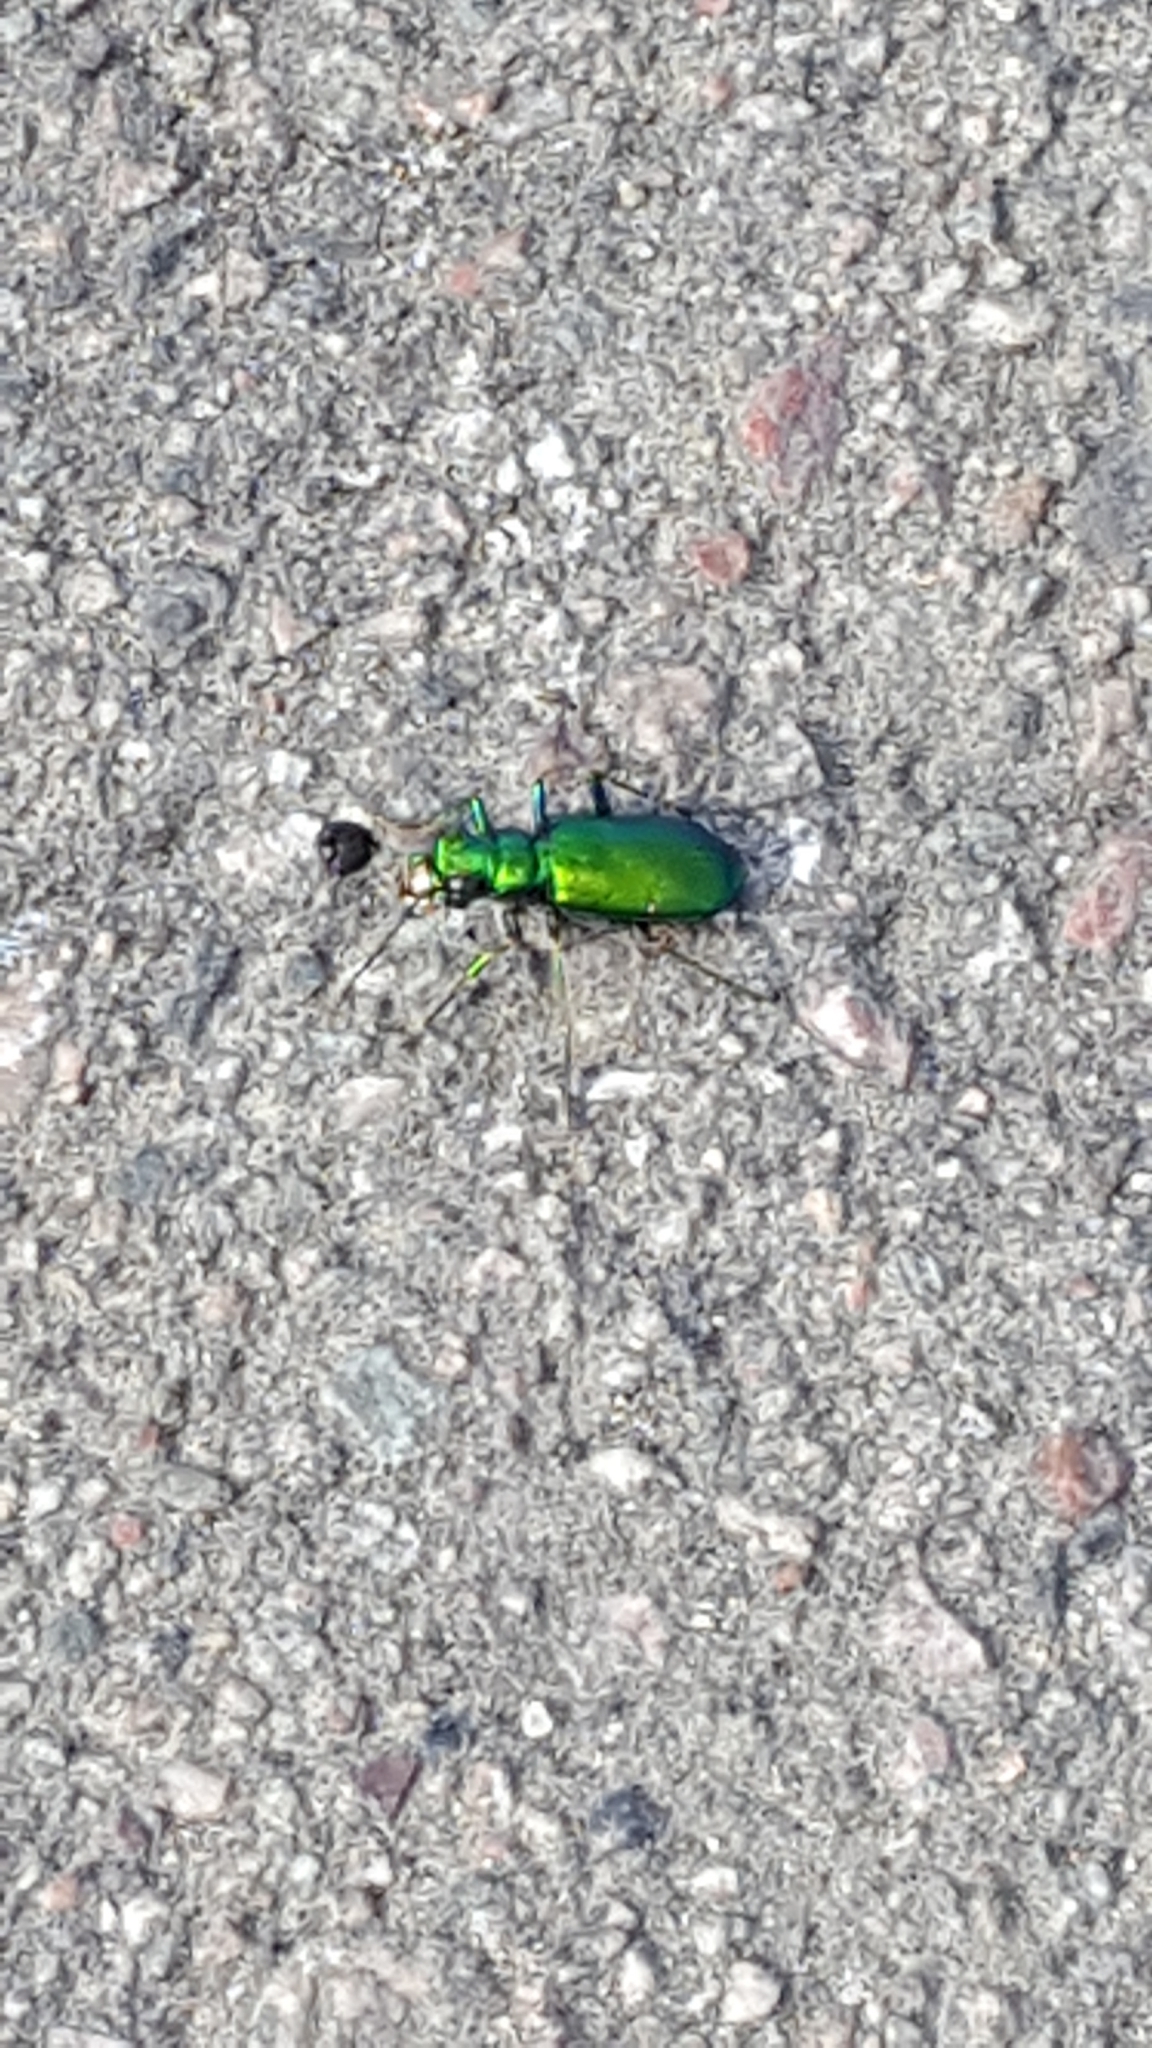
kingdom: Animalia
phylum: Arthropoda
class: Insecta
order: Coleoptera
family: Carabidae
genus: Cicindela
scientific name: Cicindela denikei
